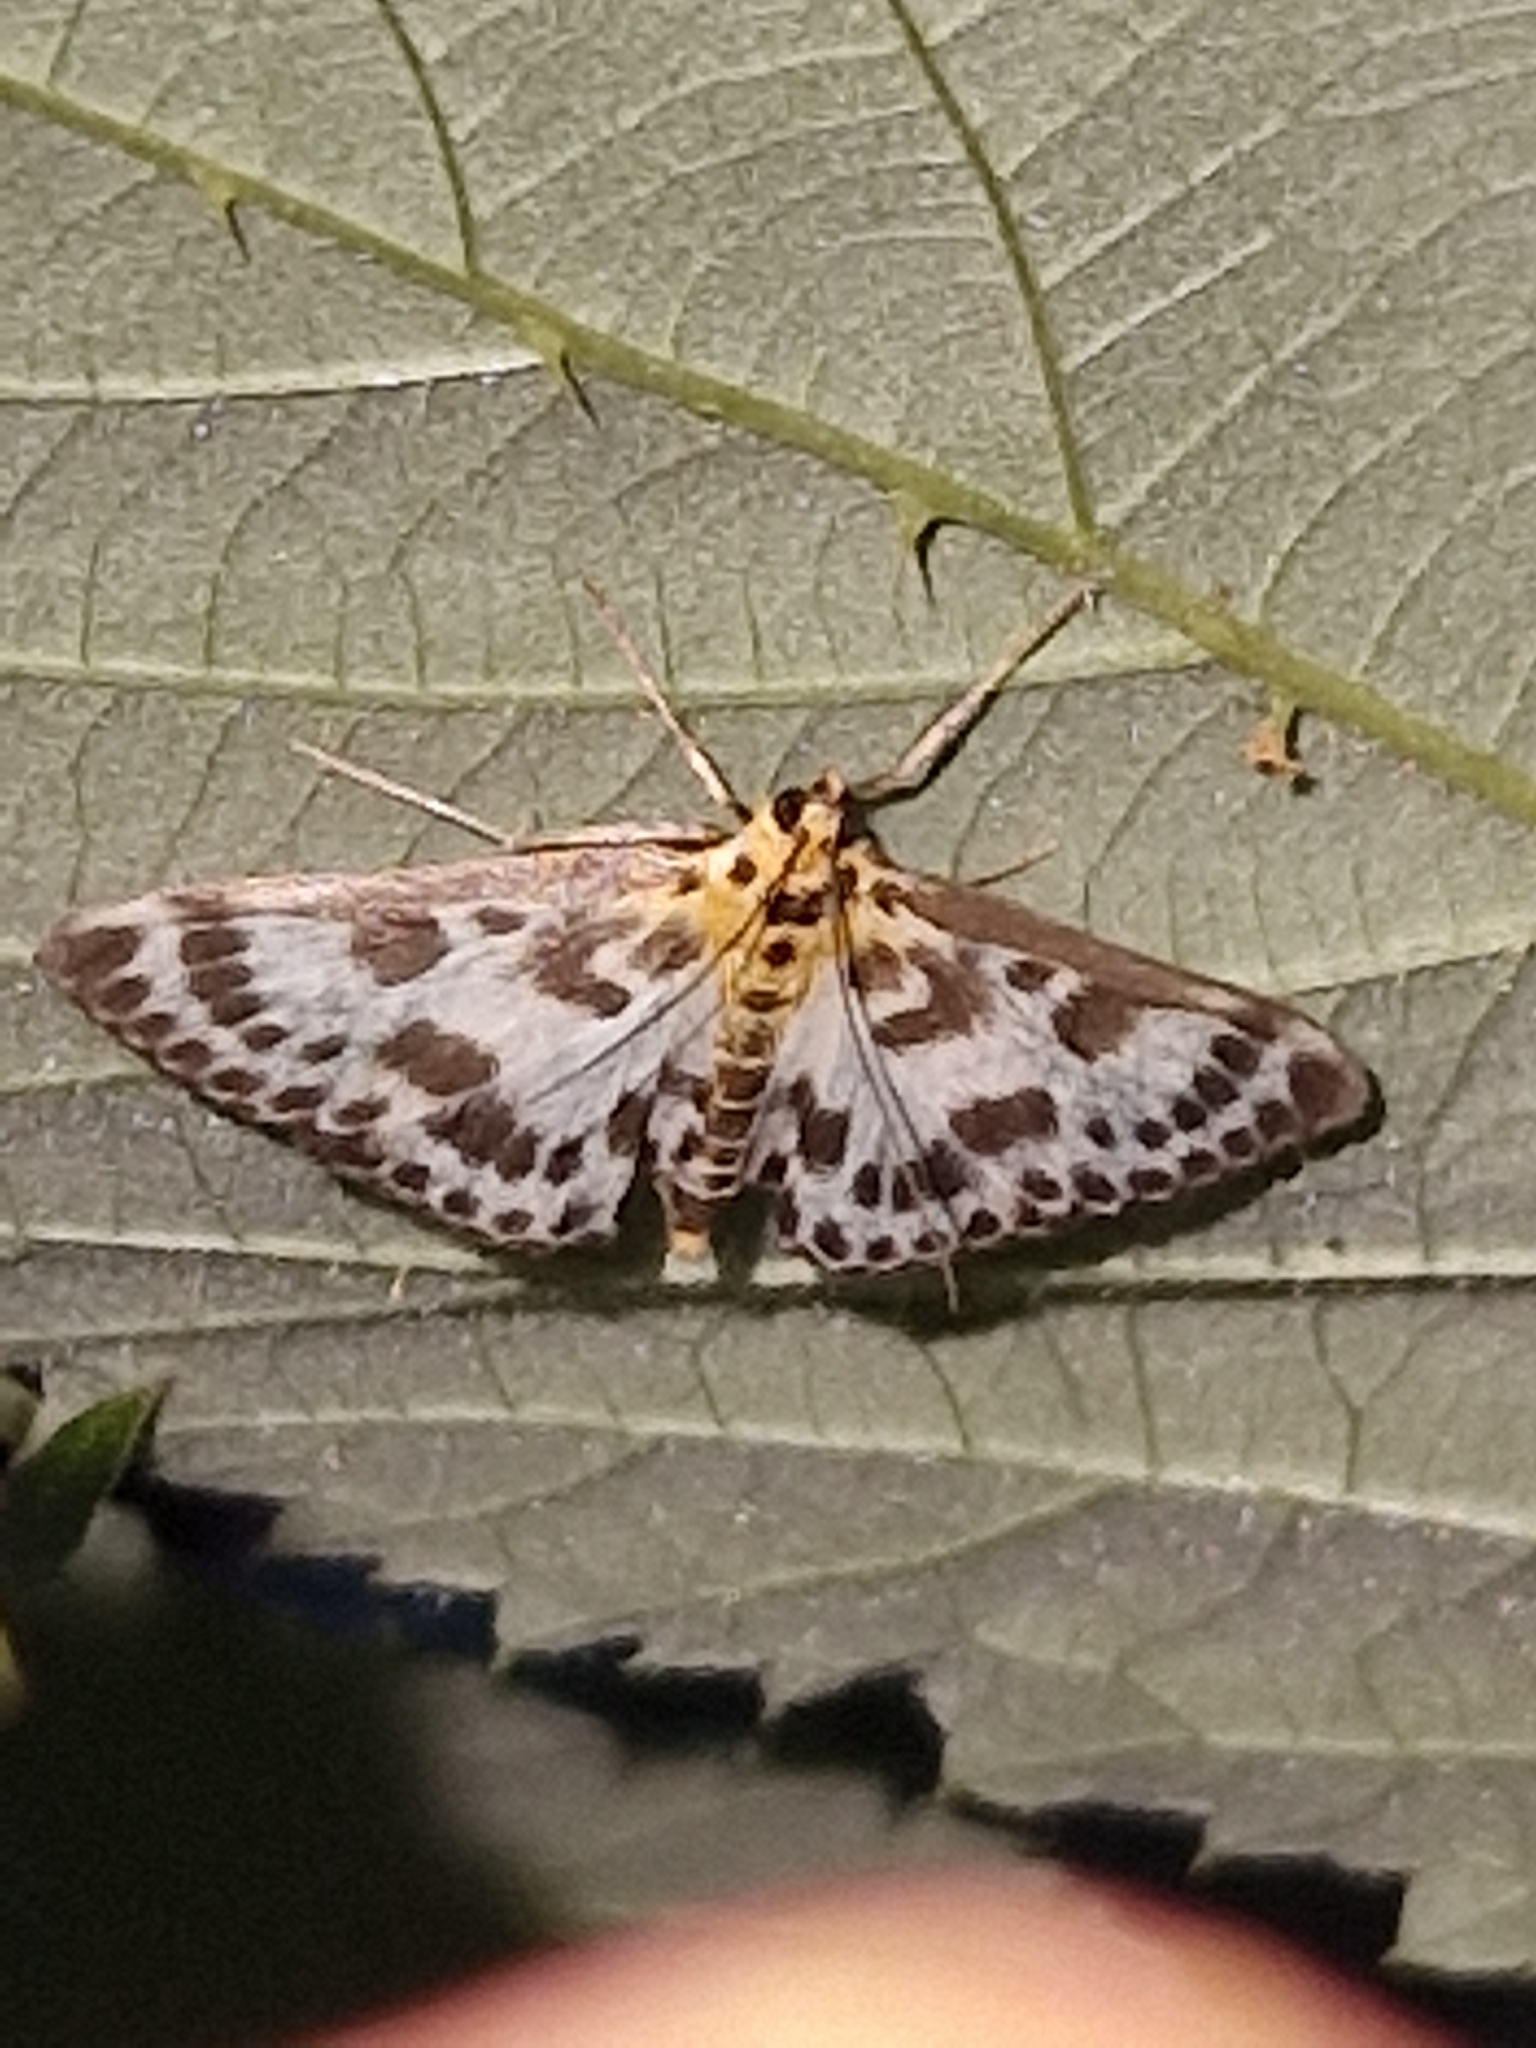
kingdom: Animalia
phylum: Arthropoda
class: Insecta
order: Lepidoptera
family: Crambidae
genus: Anania
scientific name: Anania hortulata
